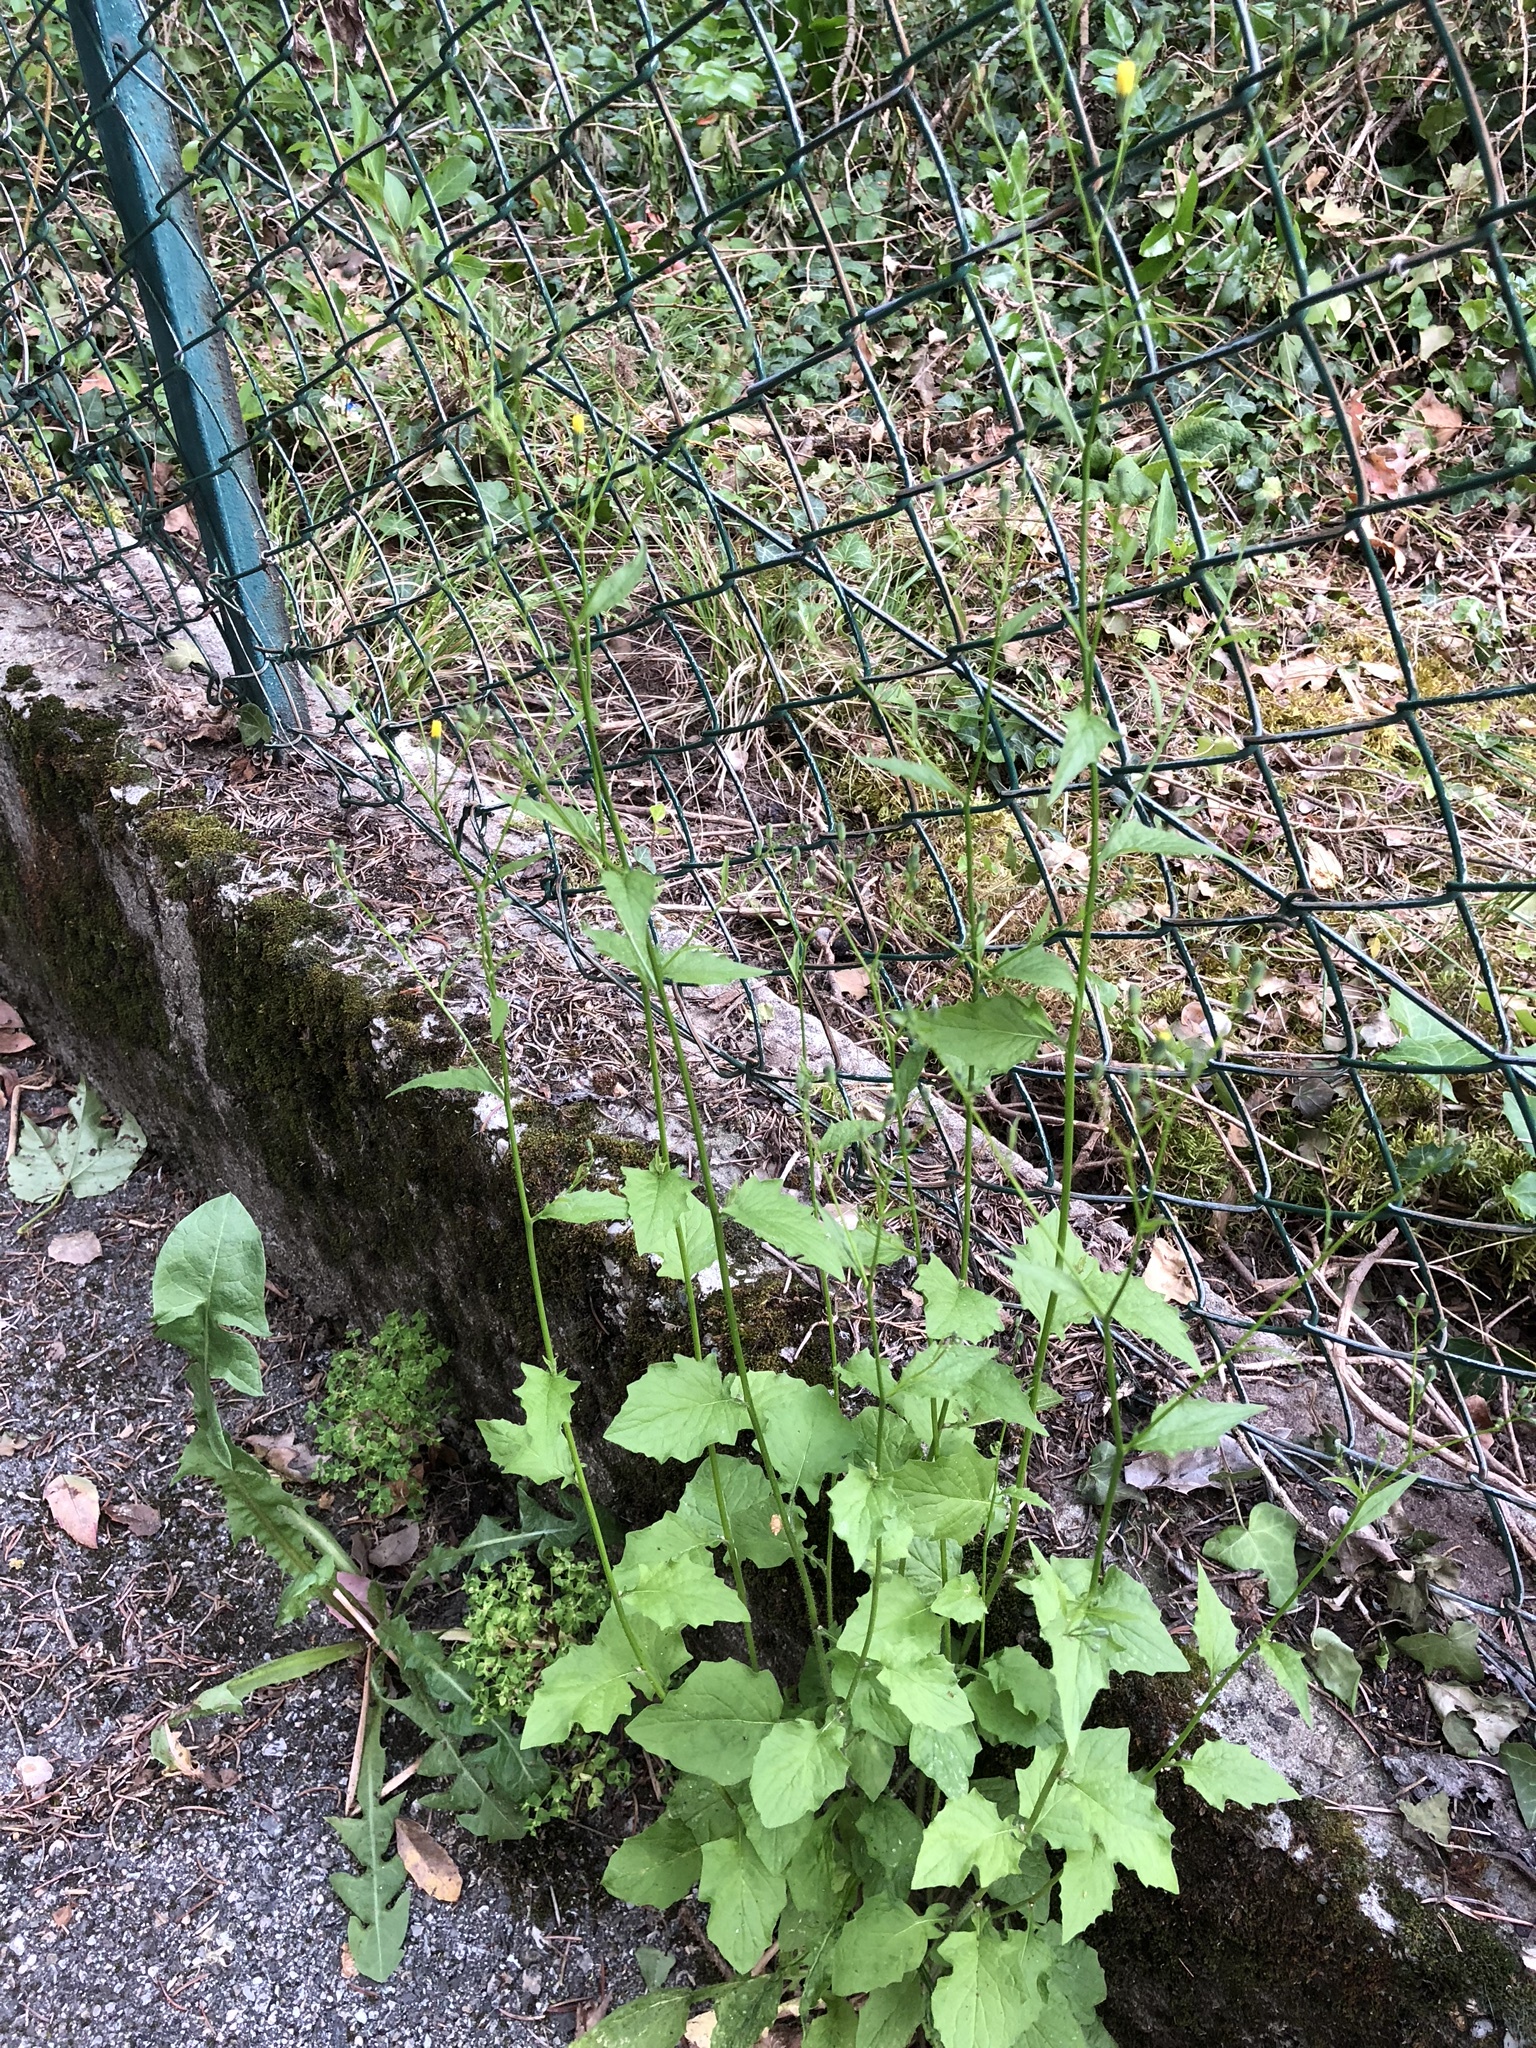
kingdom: Plantae
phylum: Tracheophyta
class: Magnoliopsida
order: Asterales
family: Asteraceae
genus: Lapsana
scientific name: Lapsana communis
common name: Nipplewort
